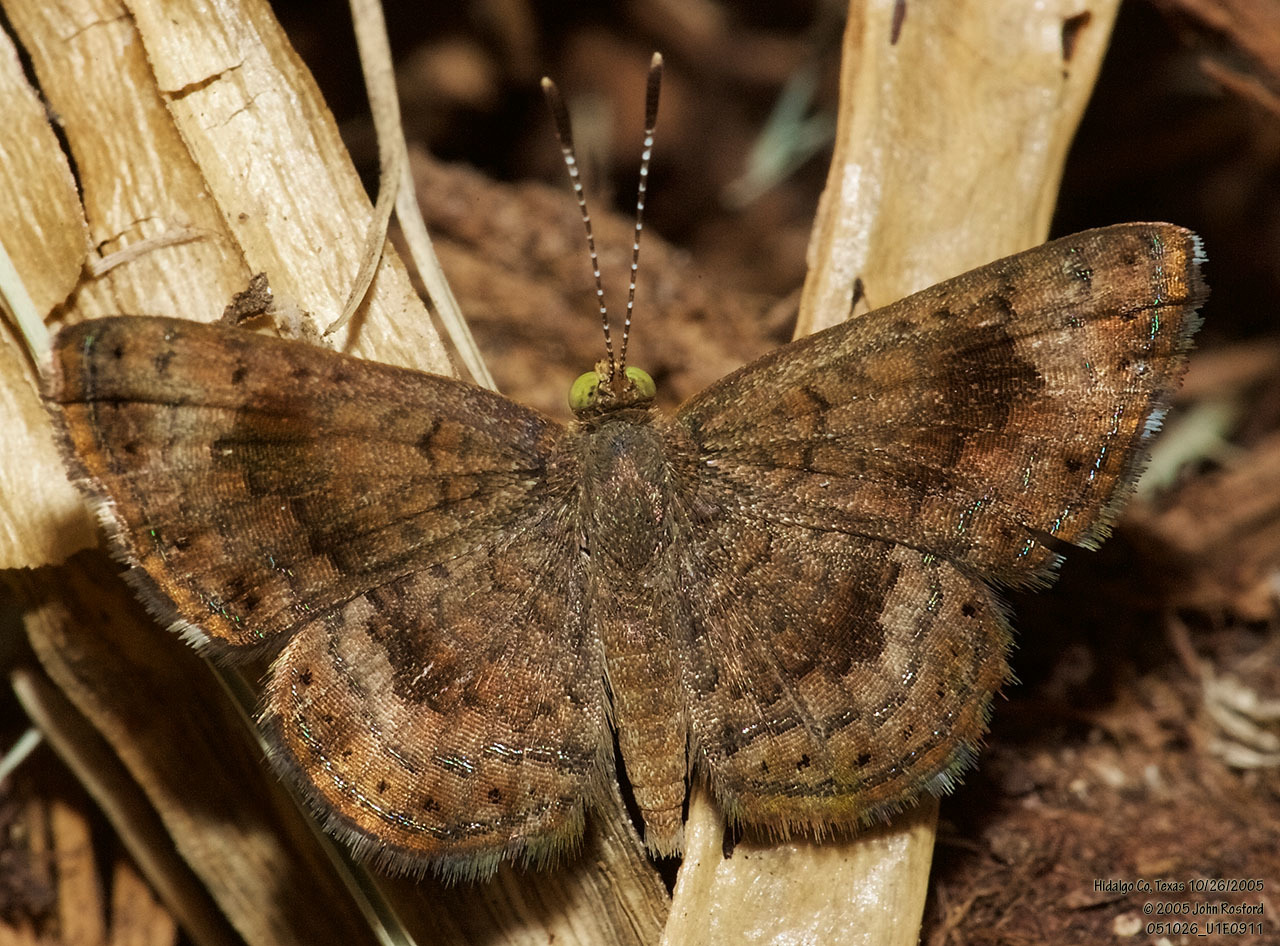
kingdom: Animalia
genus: Calephelis
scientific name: Calephelis nemesis
